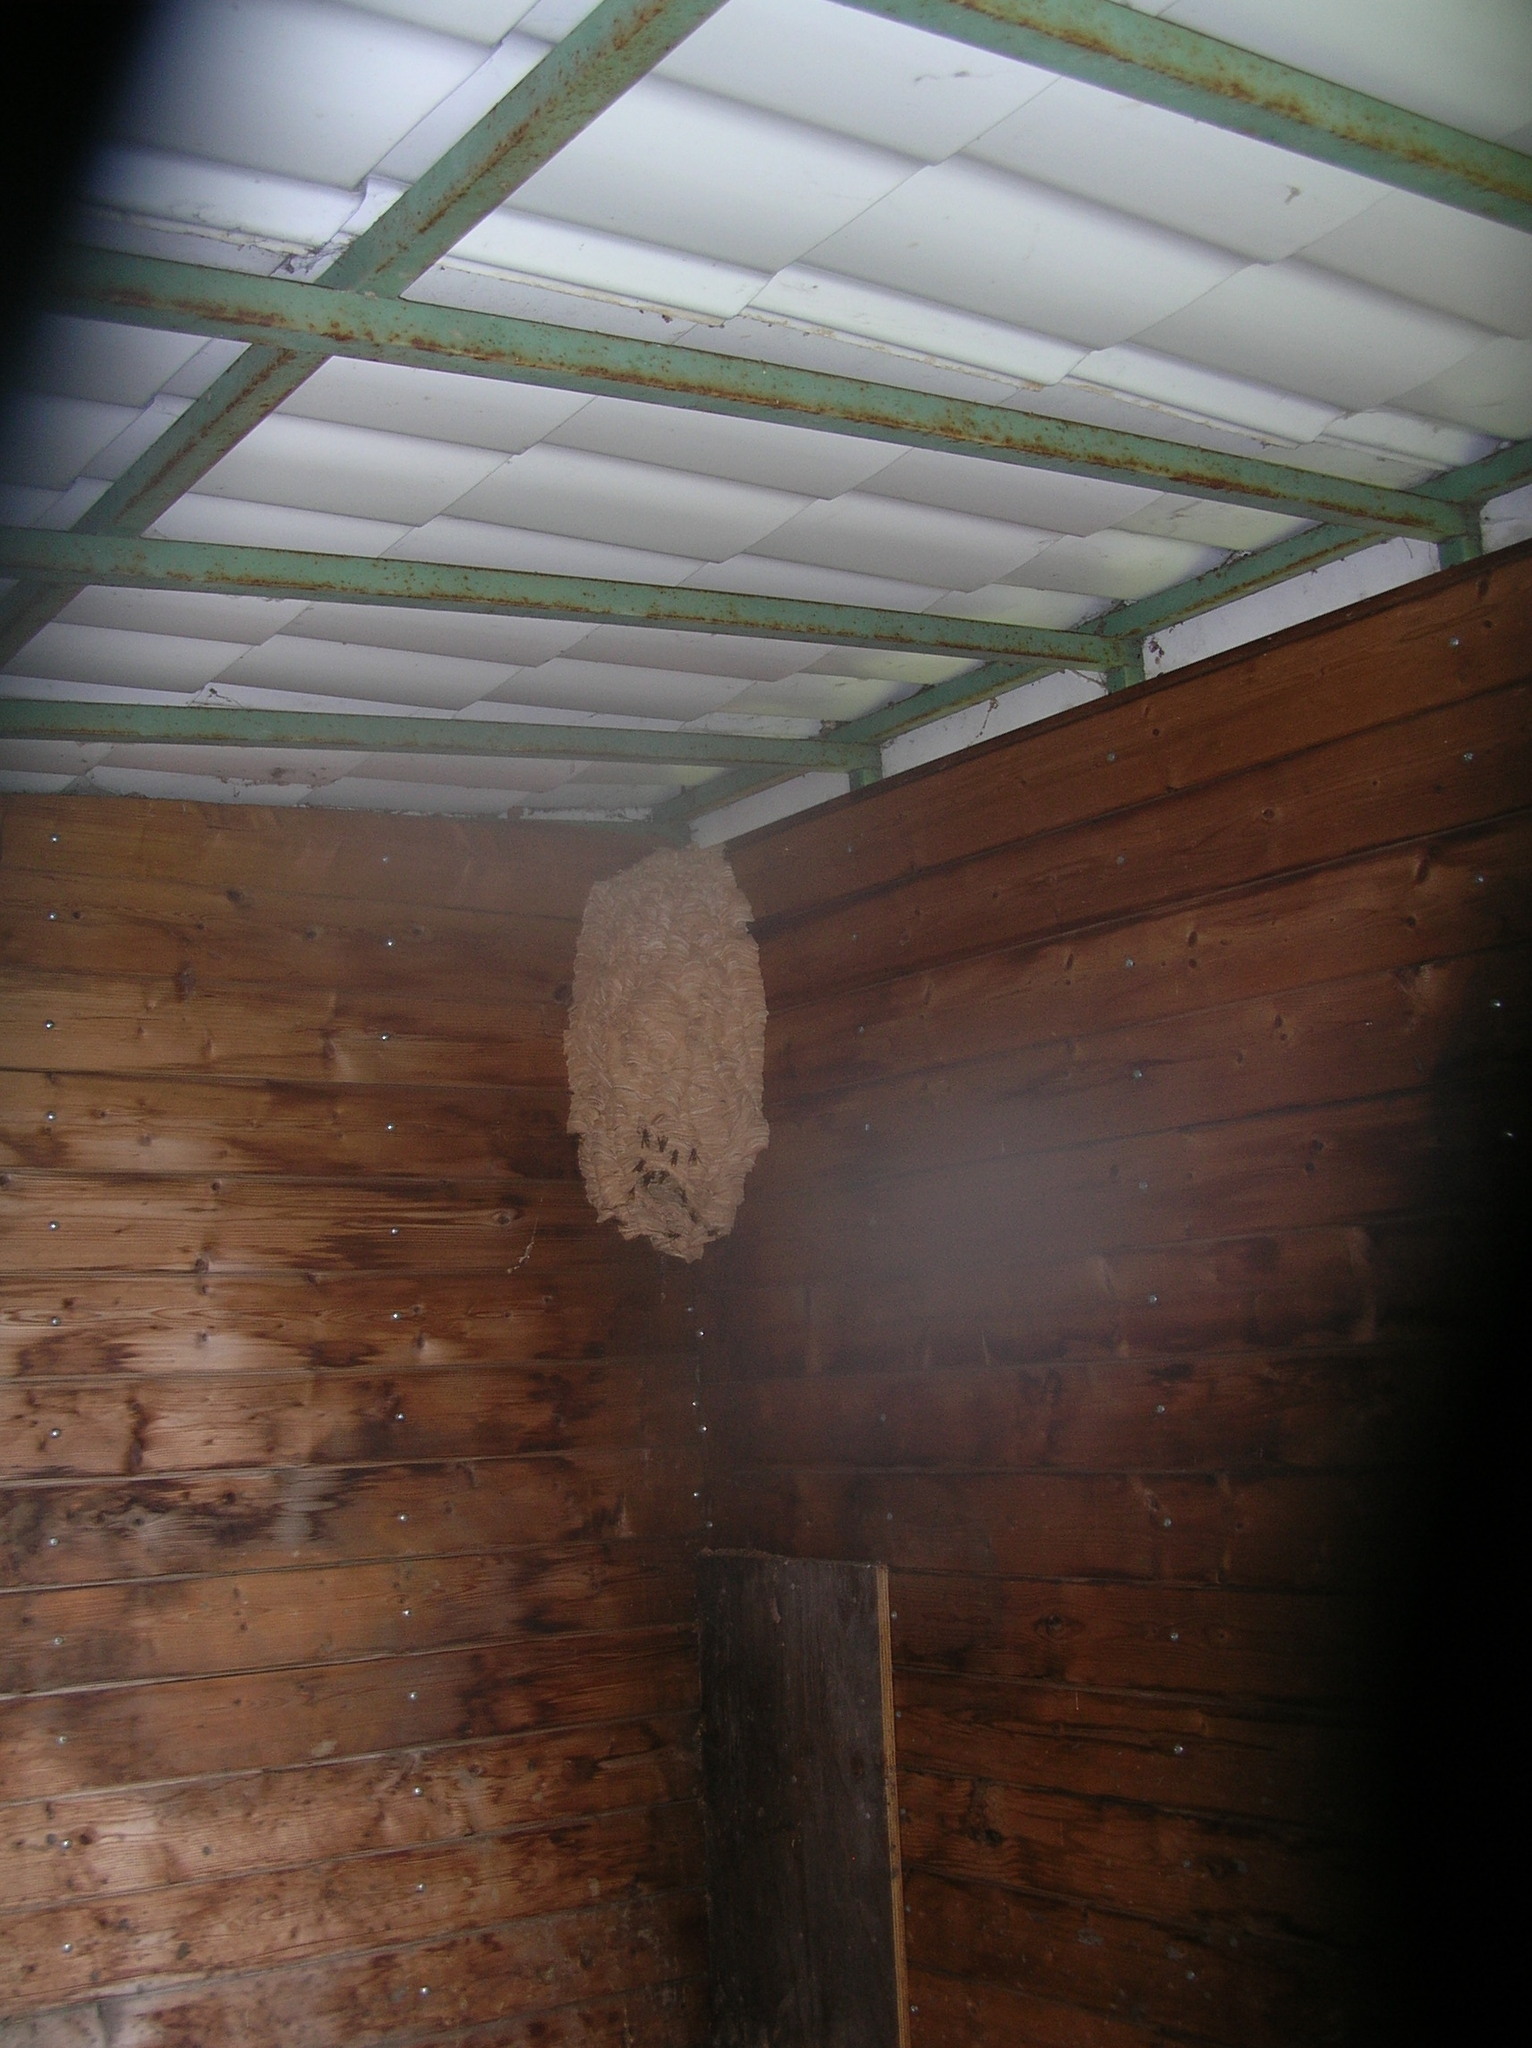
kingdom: Animalia
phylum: Arthropoda
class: Insecta
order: Hymenoptera
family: Vespidae
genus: Vespa
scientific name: Vespa crabro
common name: Hornet
